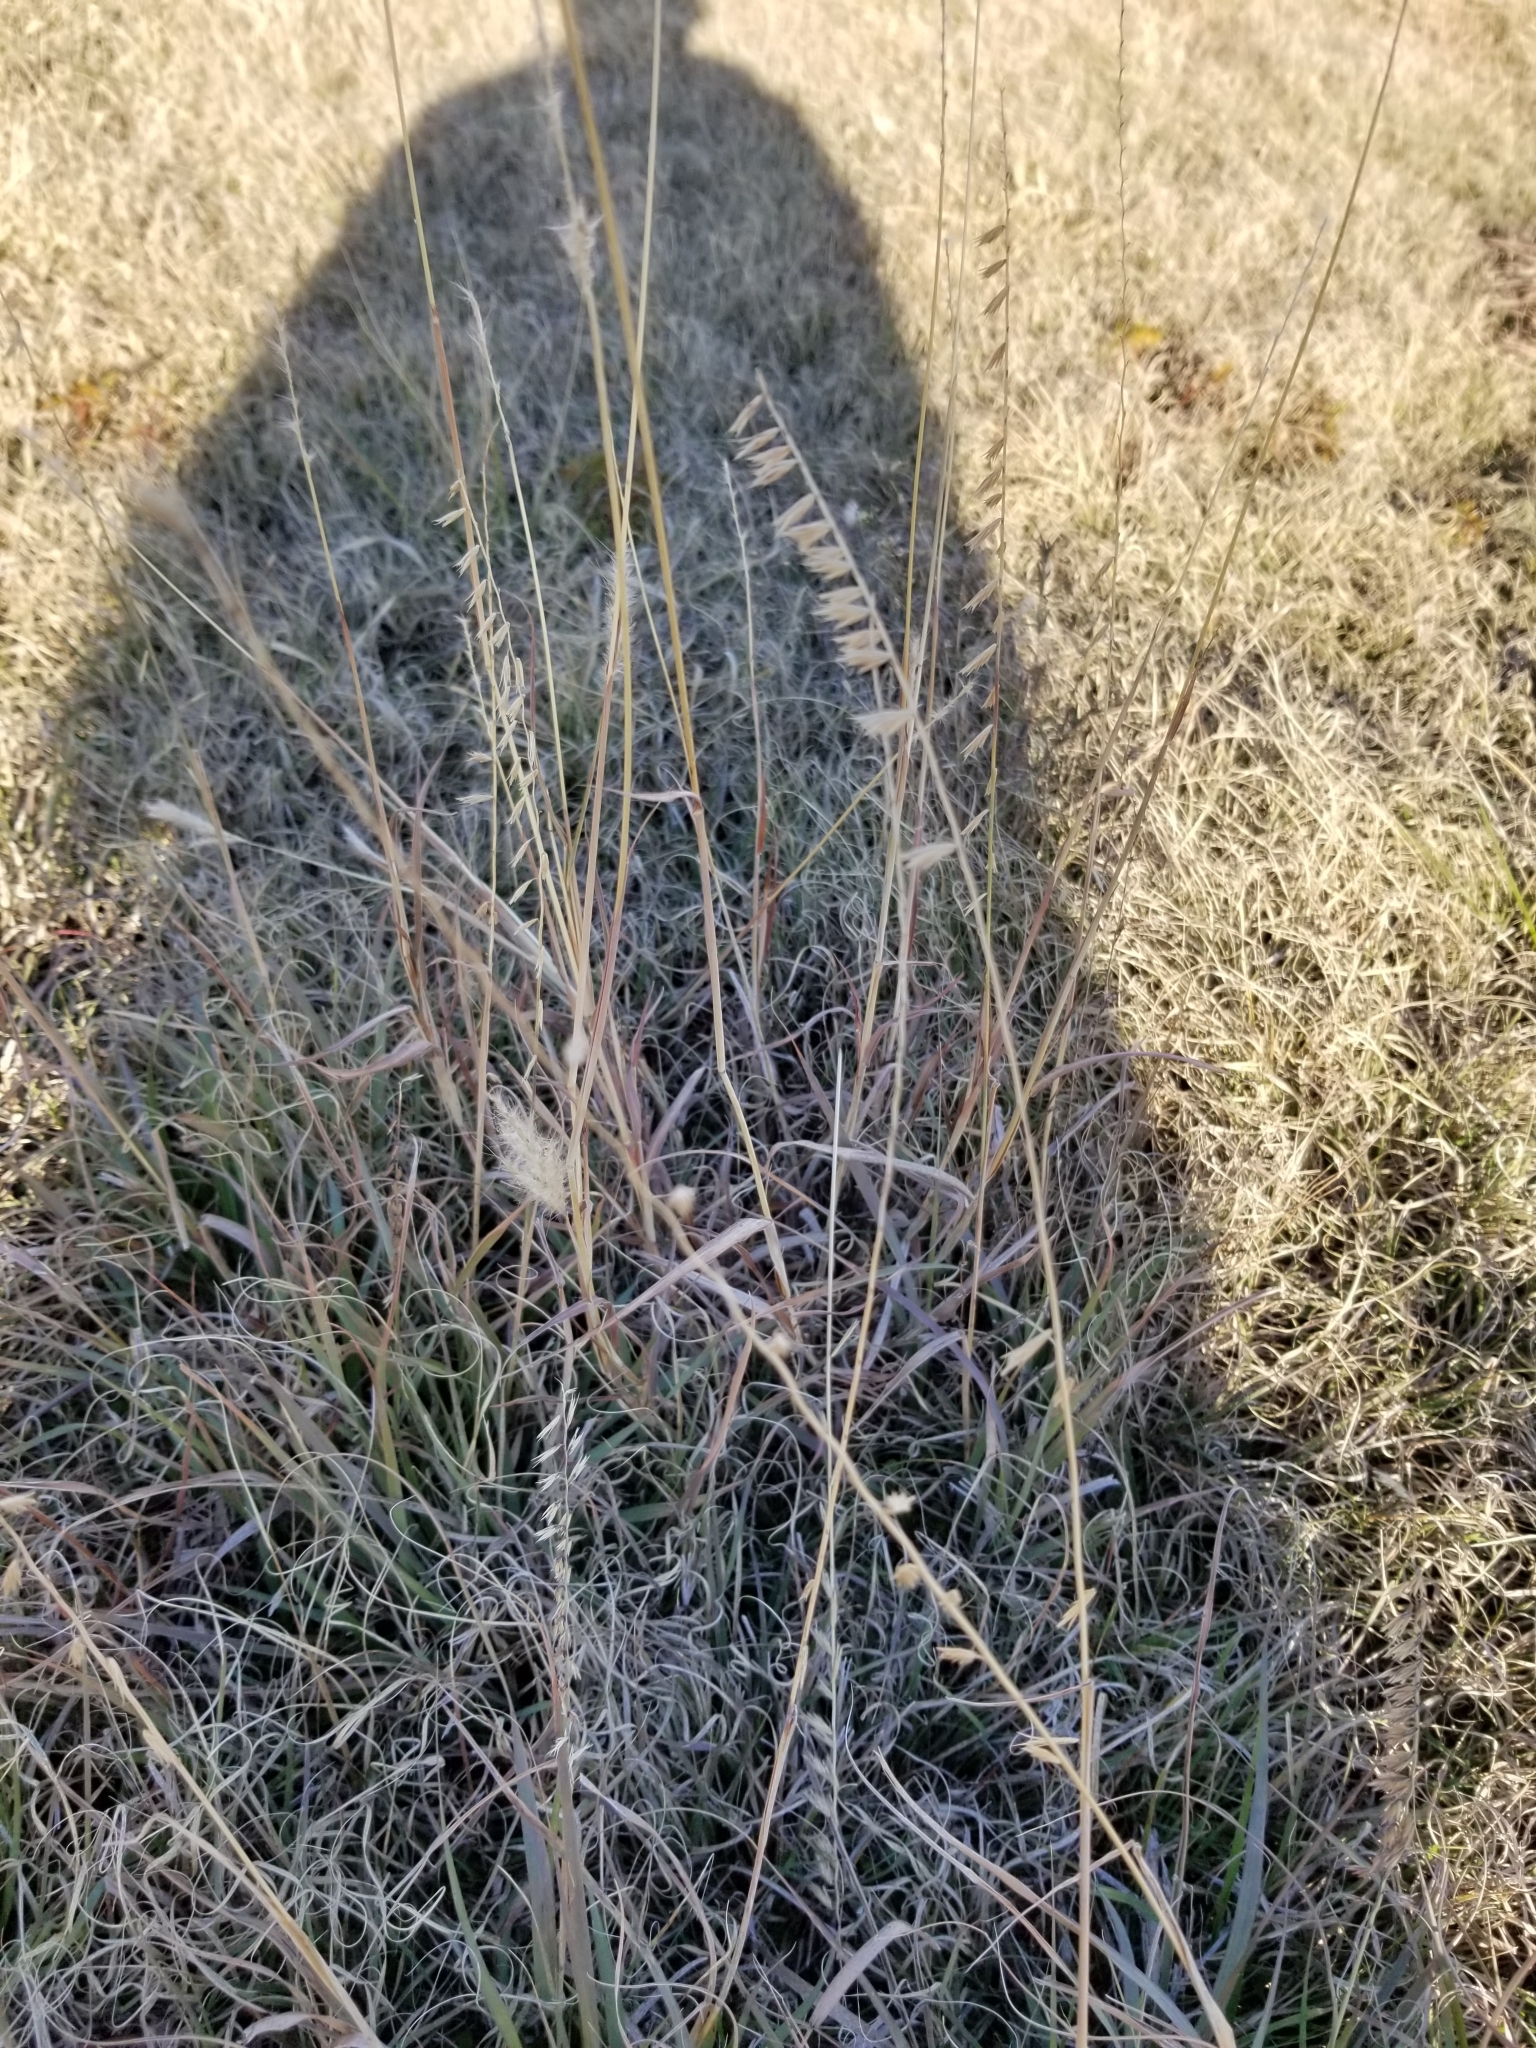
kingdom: Plantae
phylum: Tracheophyta
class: Liliopsida
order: Poales
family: Poaceae
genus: Bouteloua
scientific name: Bouteloua curtipendula
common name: Side-oats grama
